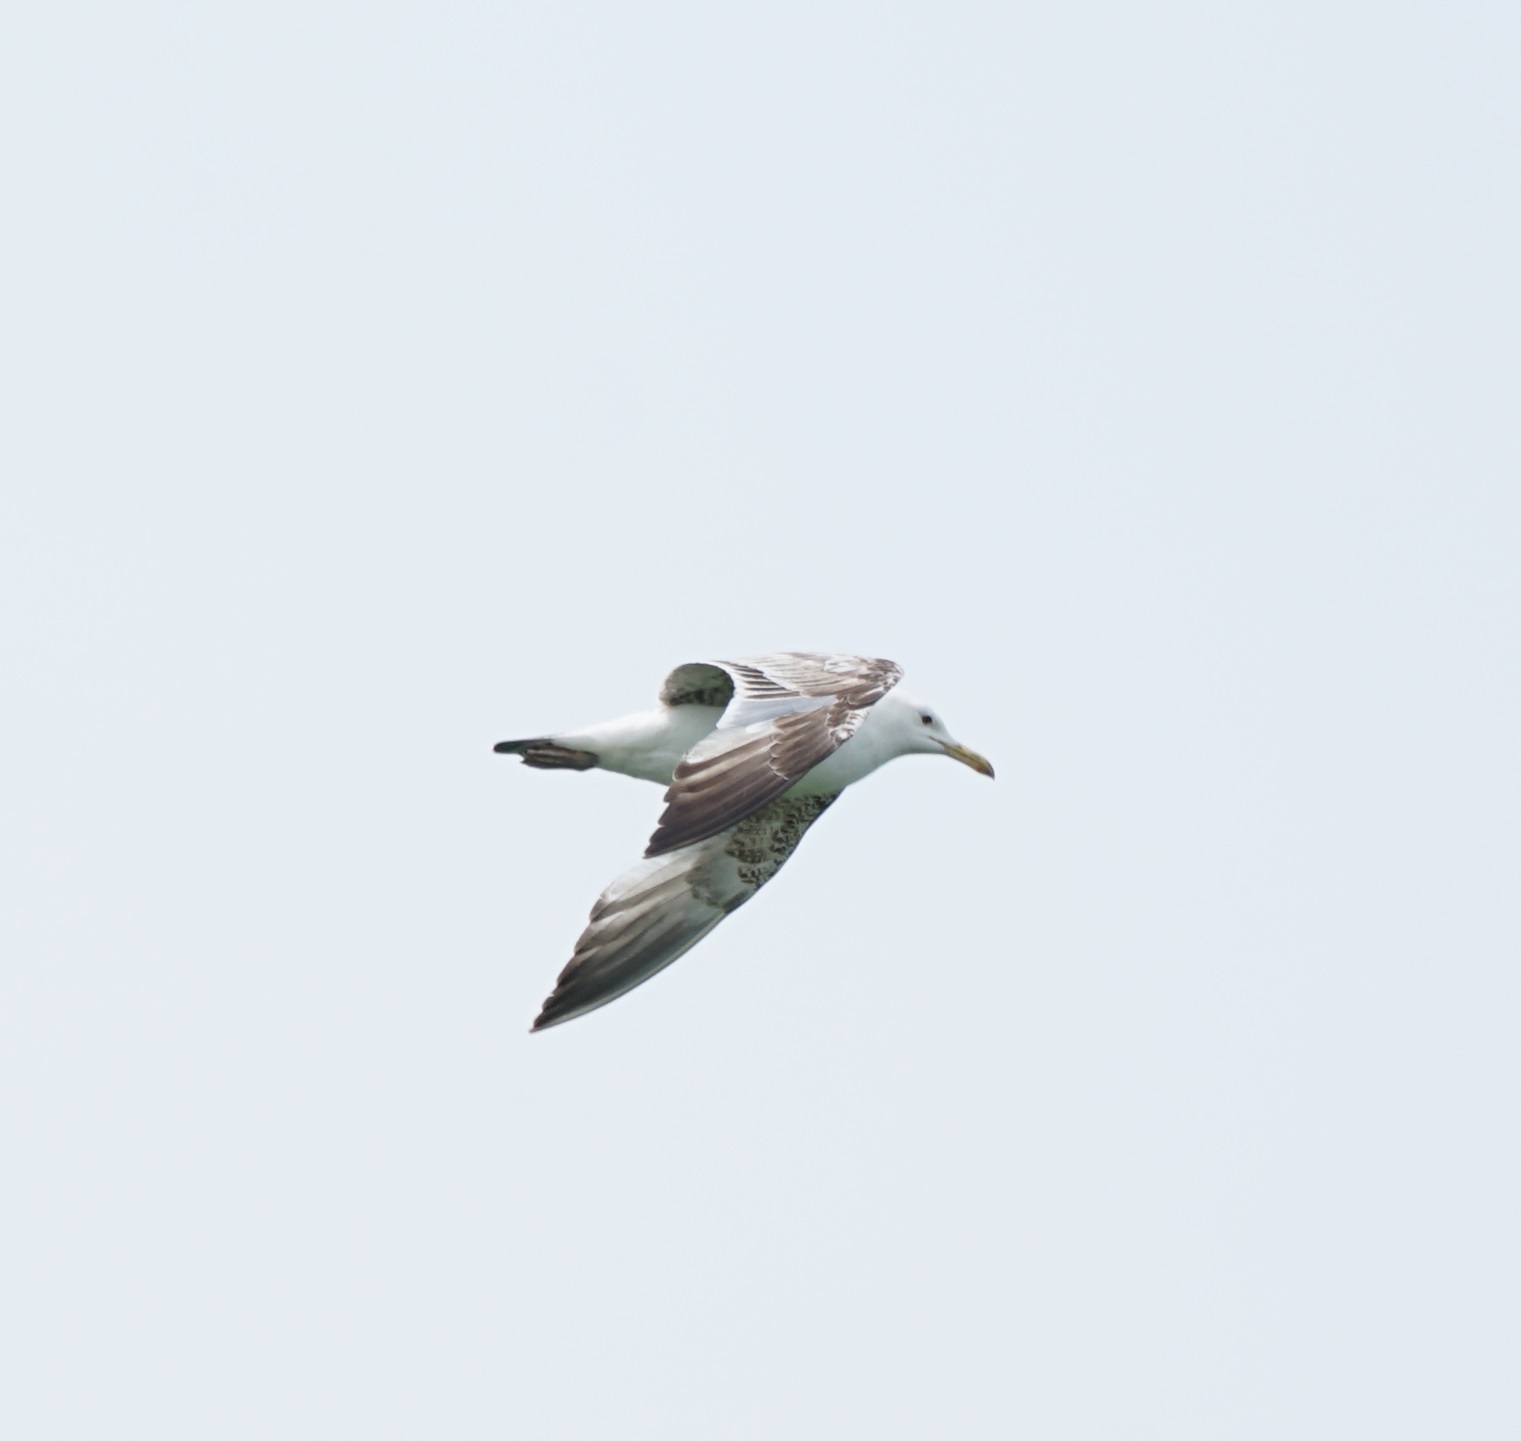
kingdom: Animalia
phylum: Chordata
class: Aves
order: Charadriiformes
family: Laridae
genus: Larus
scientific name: Larus cachinnans
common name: Caspian gull
